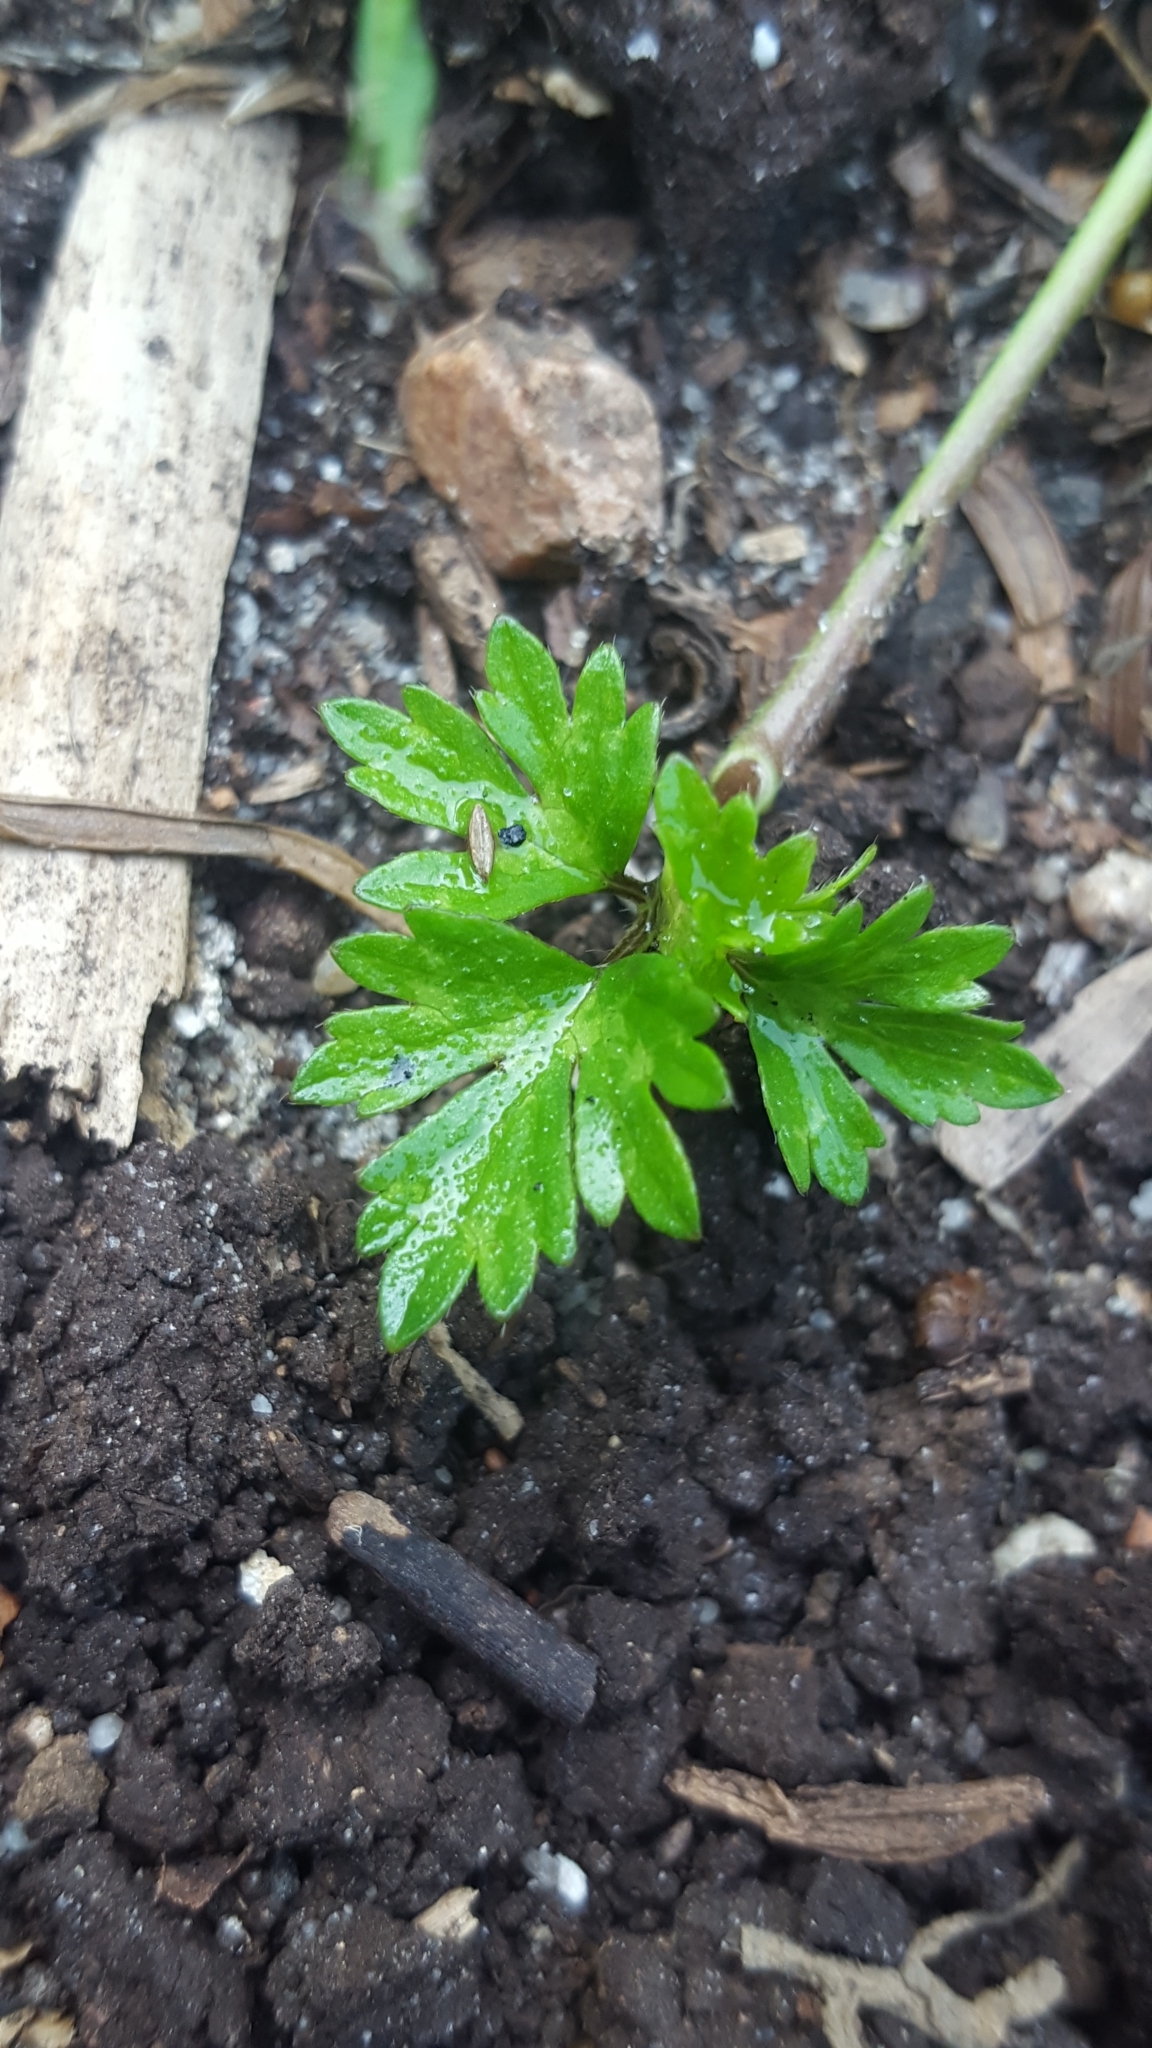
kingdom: Plantae
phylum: Tracheophyta
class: Magnoliopsida
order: Ranunculales
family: Ranunculaceae
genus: Ranunculus
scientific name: Ranunculus repens
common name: Creeping buttercup
